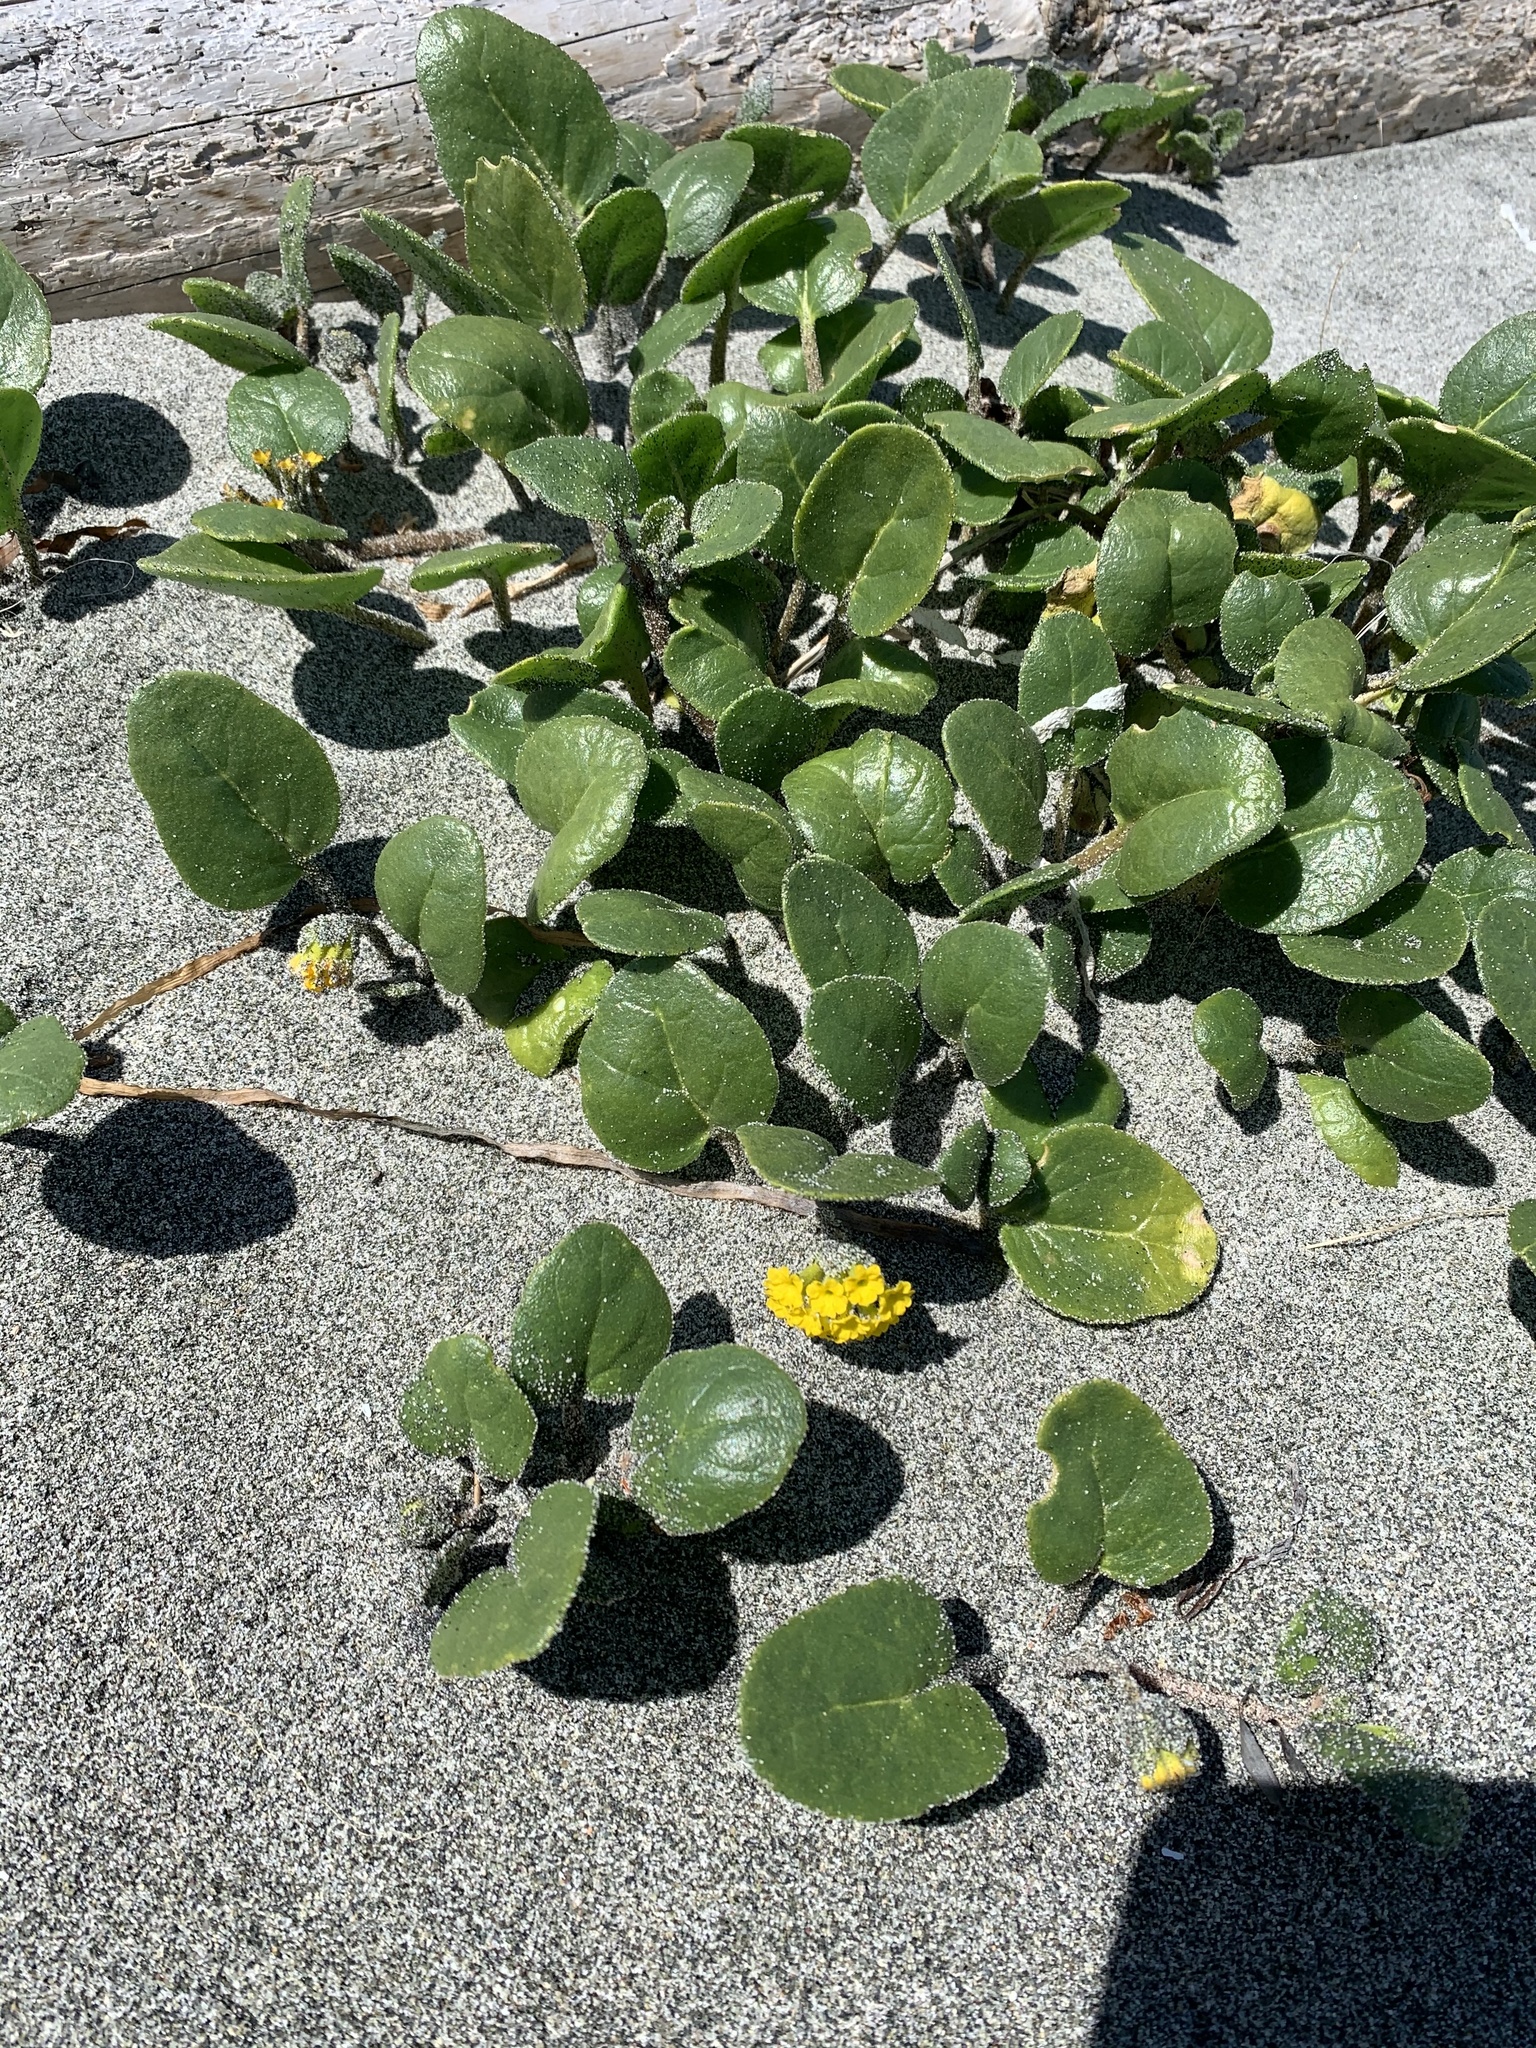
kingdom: Plantae
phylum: Tracheophyta
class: Magnoliopsida
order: Caryophyllales
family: Nyctaginaceae
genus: Abronia
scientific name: Abronia latifolia
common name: Yellow sand-verbena
